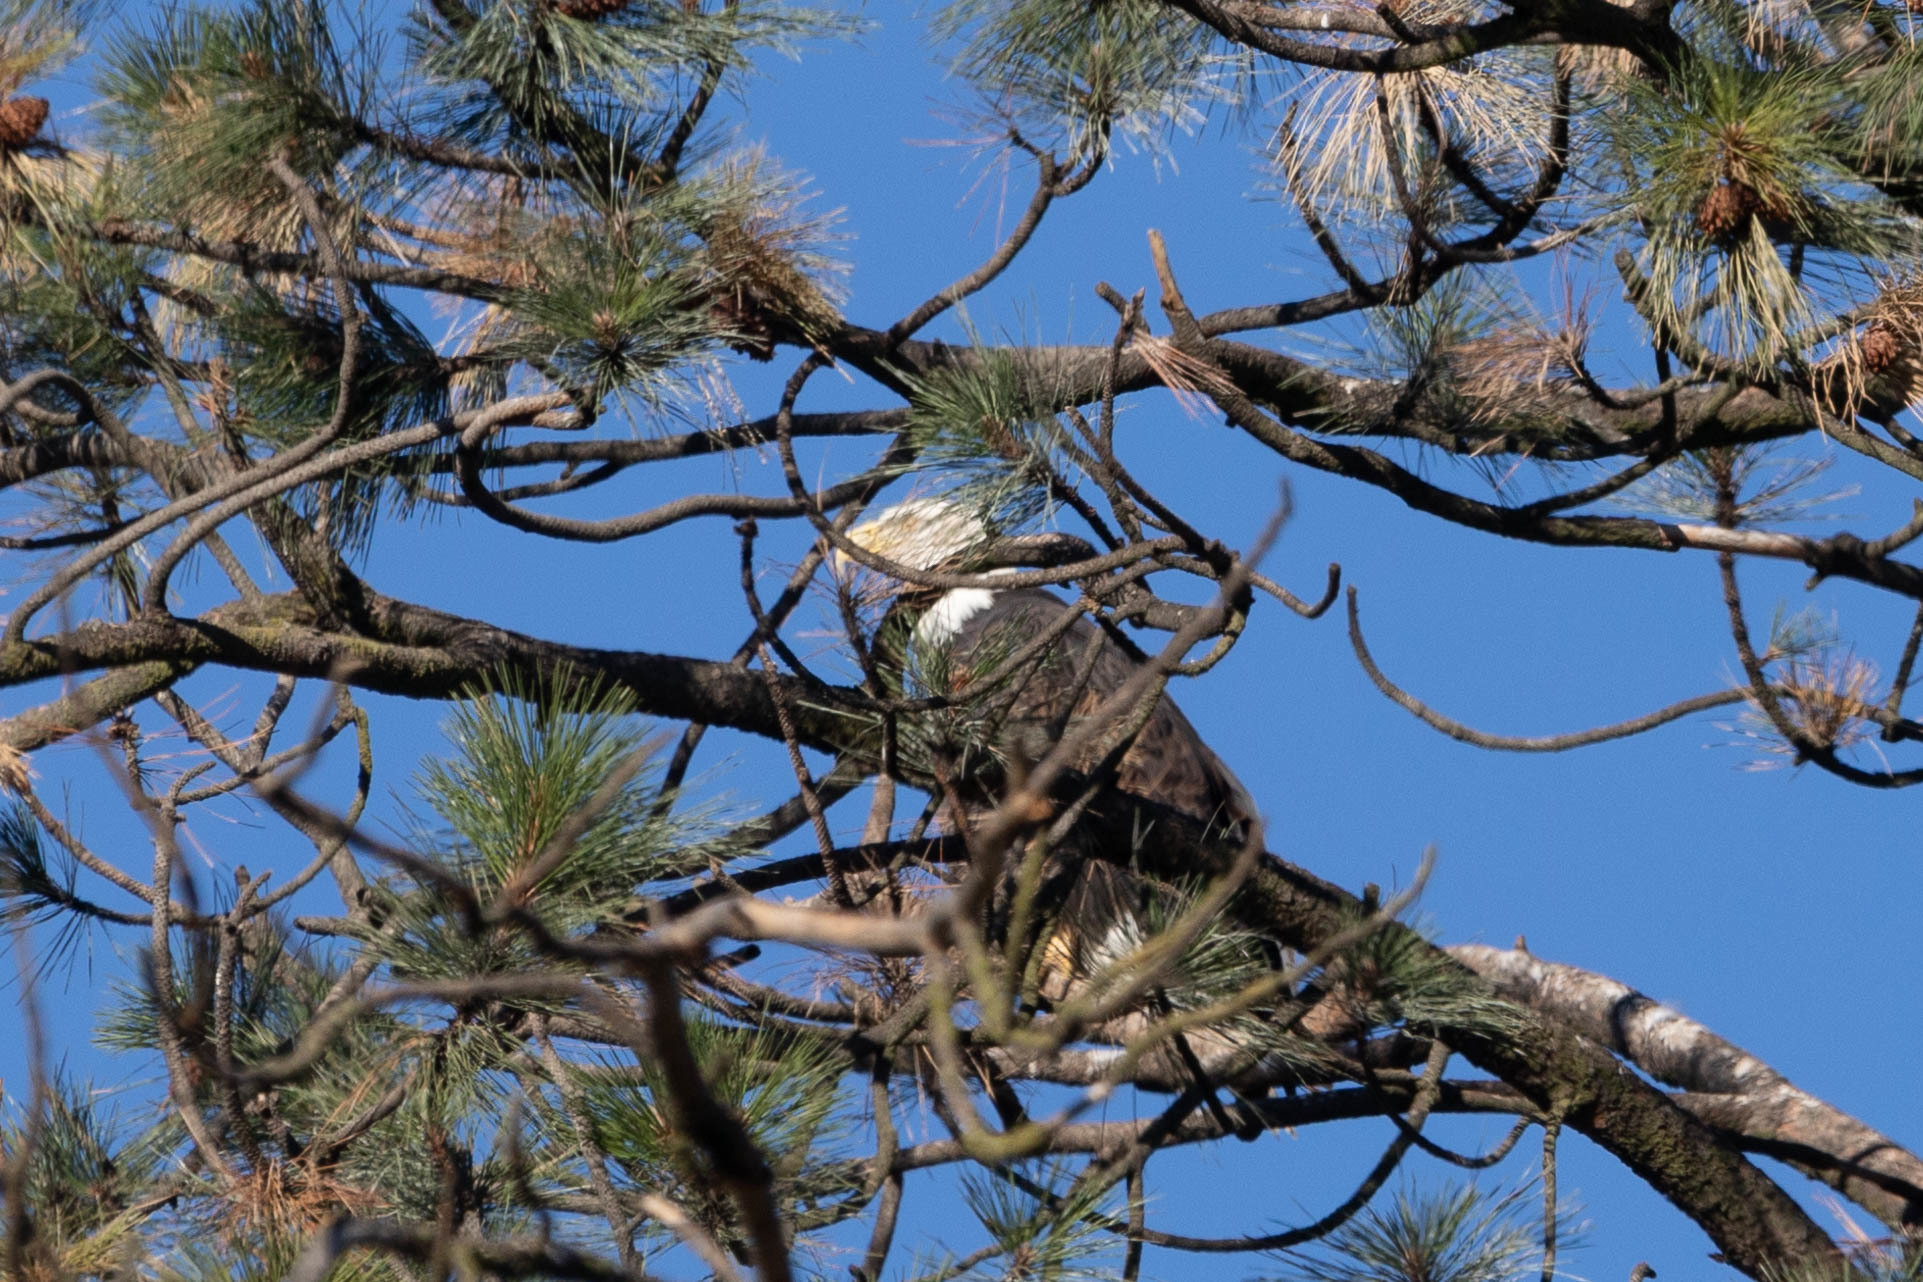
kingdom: Animalia
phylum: Chordata
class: Aves
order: Accipitriformes
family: Accipitridae
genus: Haliaeetus
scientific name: Haliaeetus leucocephalus
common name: Bald eagle
